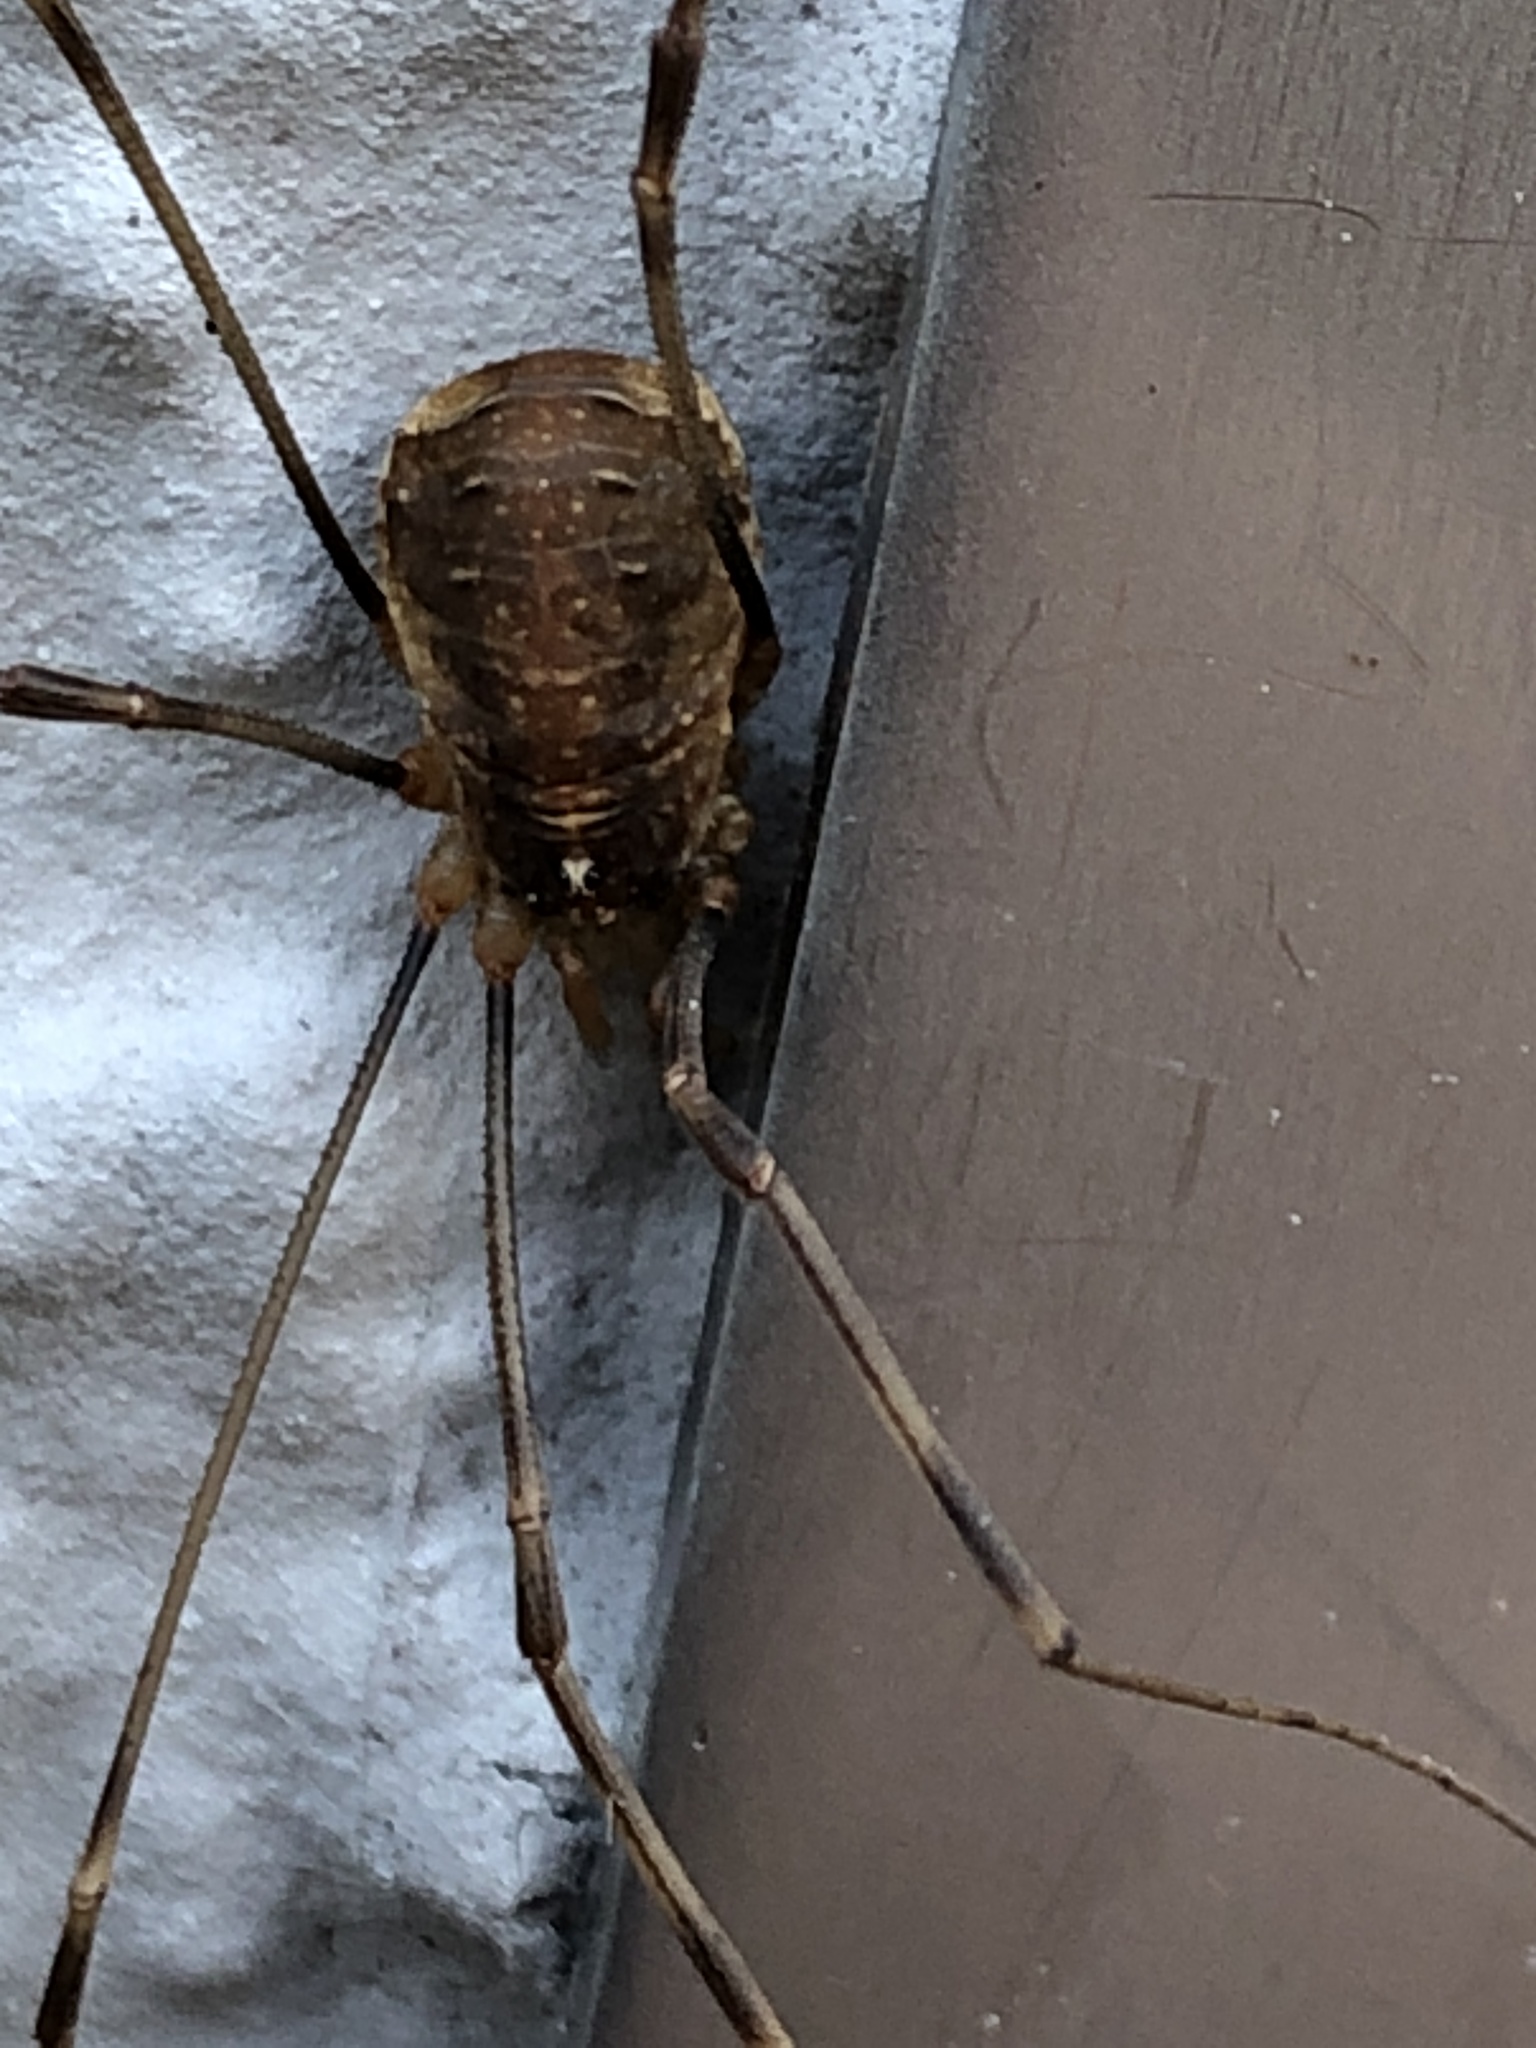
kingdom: Animalia
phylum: Arthropoda
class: Arachnida
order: Opiliones
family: Phalangiidae
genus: Opilio
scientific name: Opilio canestrinii
